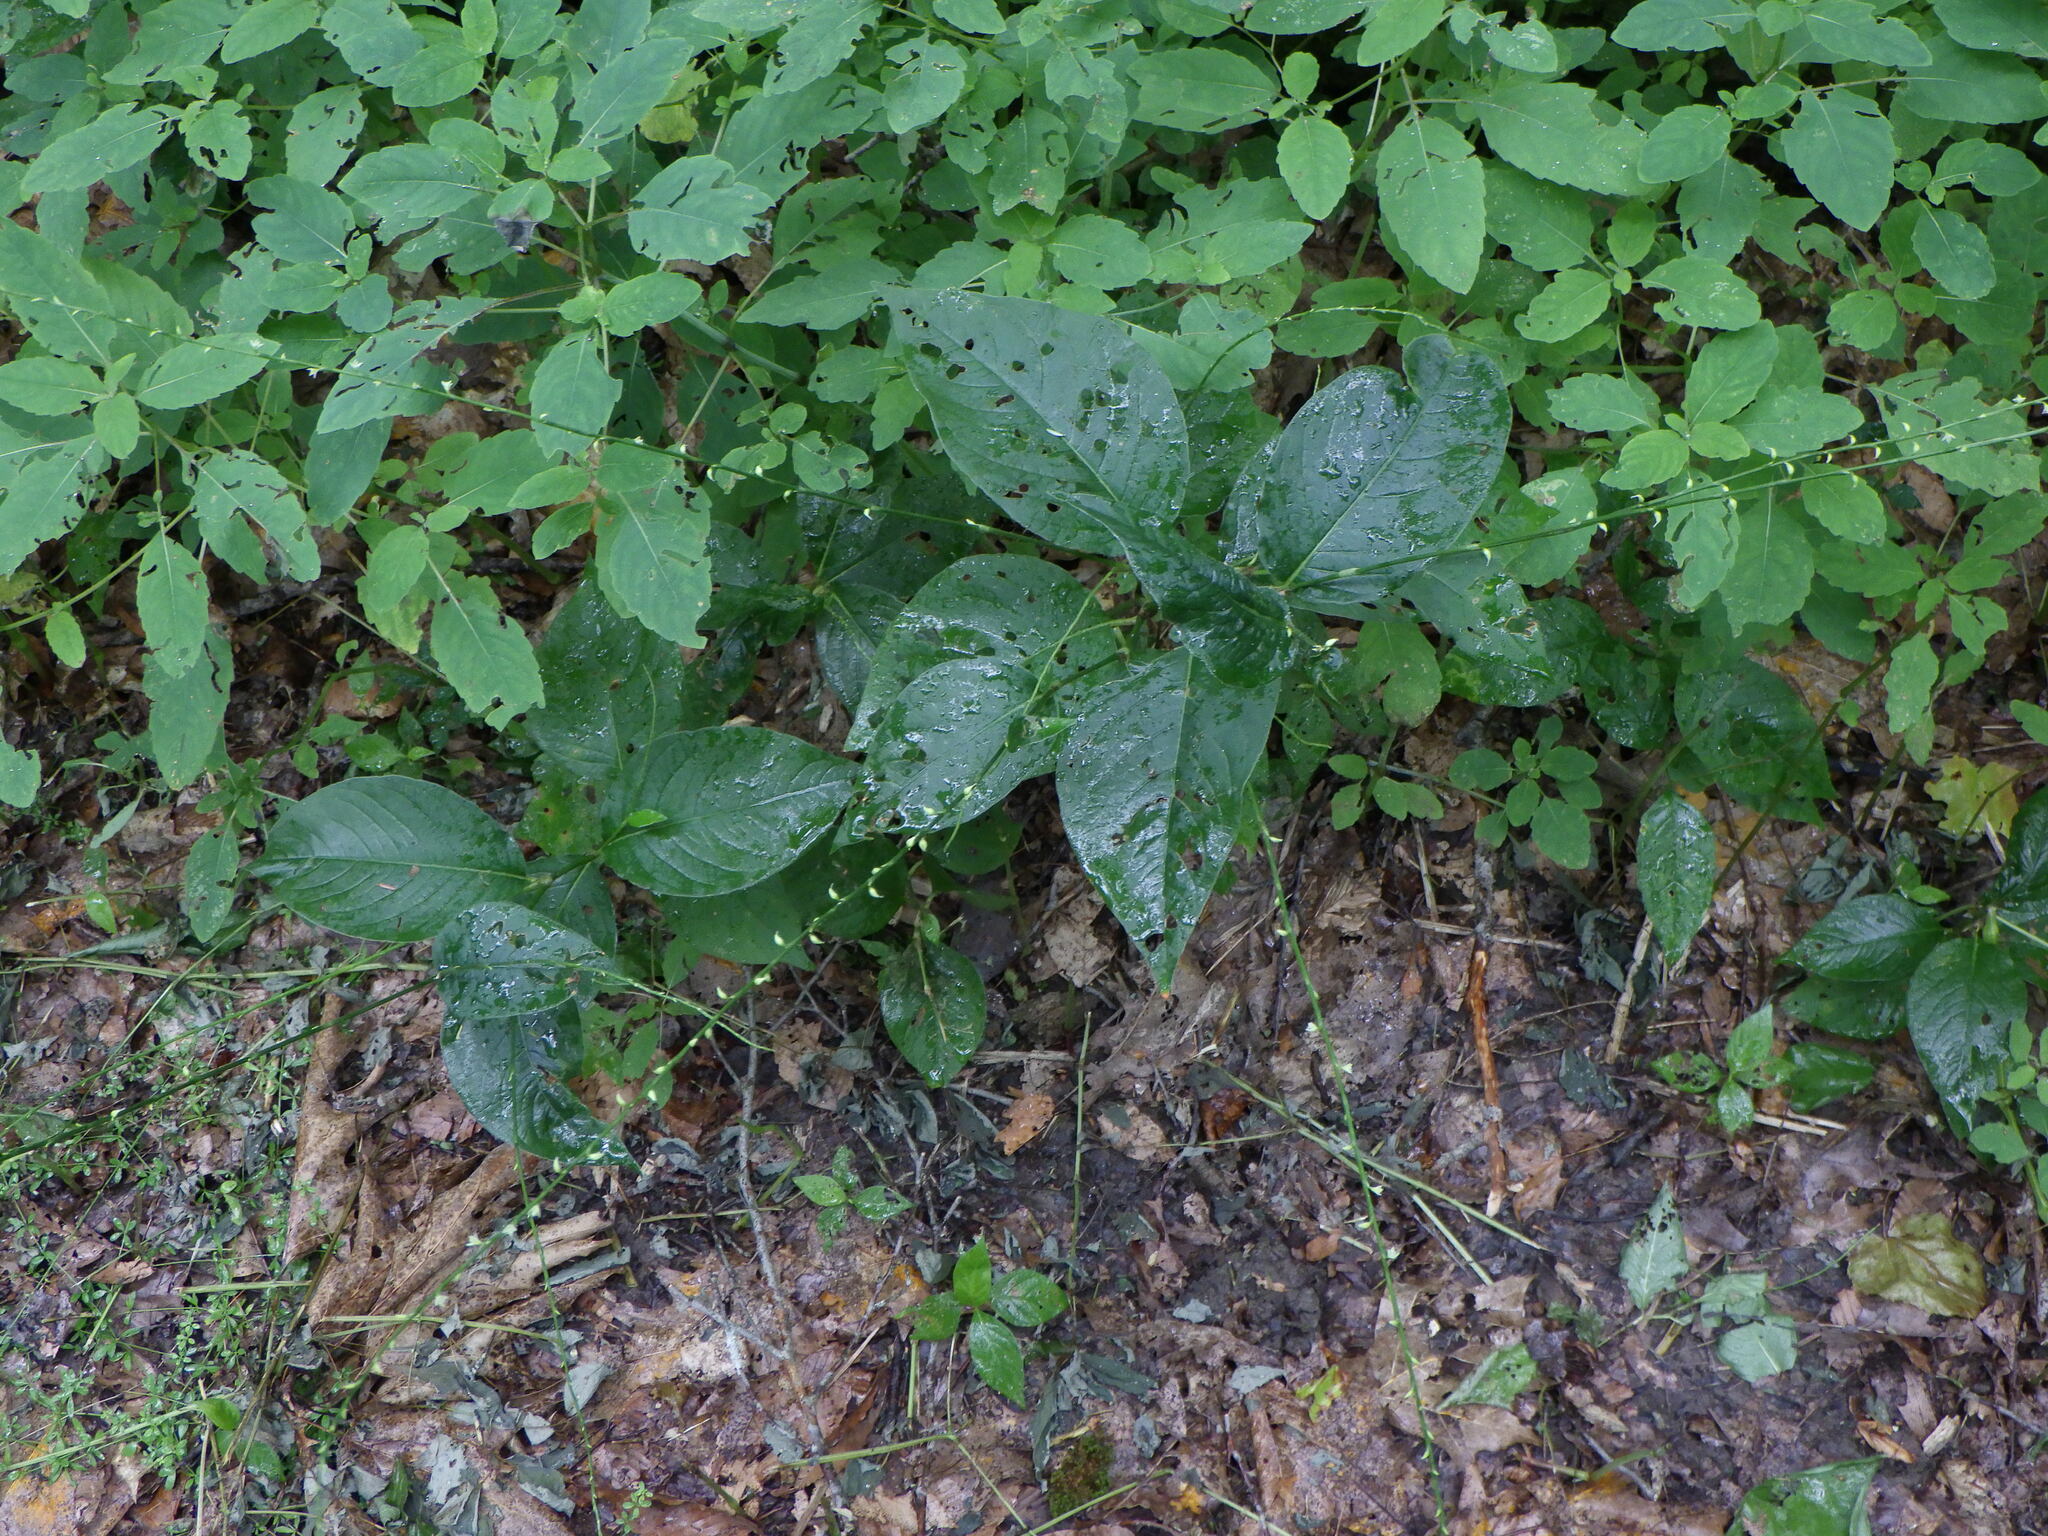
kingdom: Plantae
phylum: Tracheophyta
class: Magnoliopsida
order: Caryophyllales
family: Polygonaceae
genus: Persicaria
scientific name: Persicaria virginiana
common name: Jumpseed
